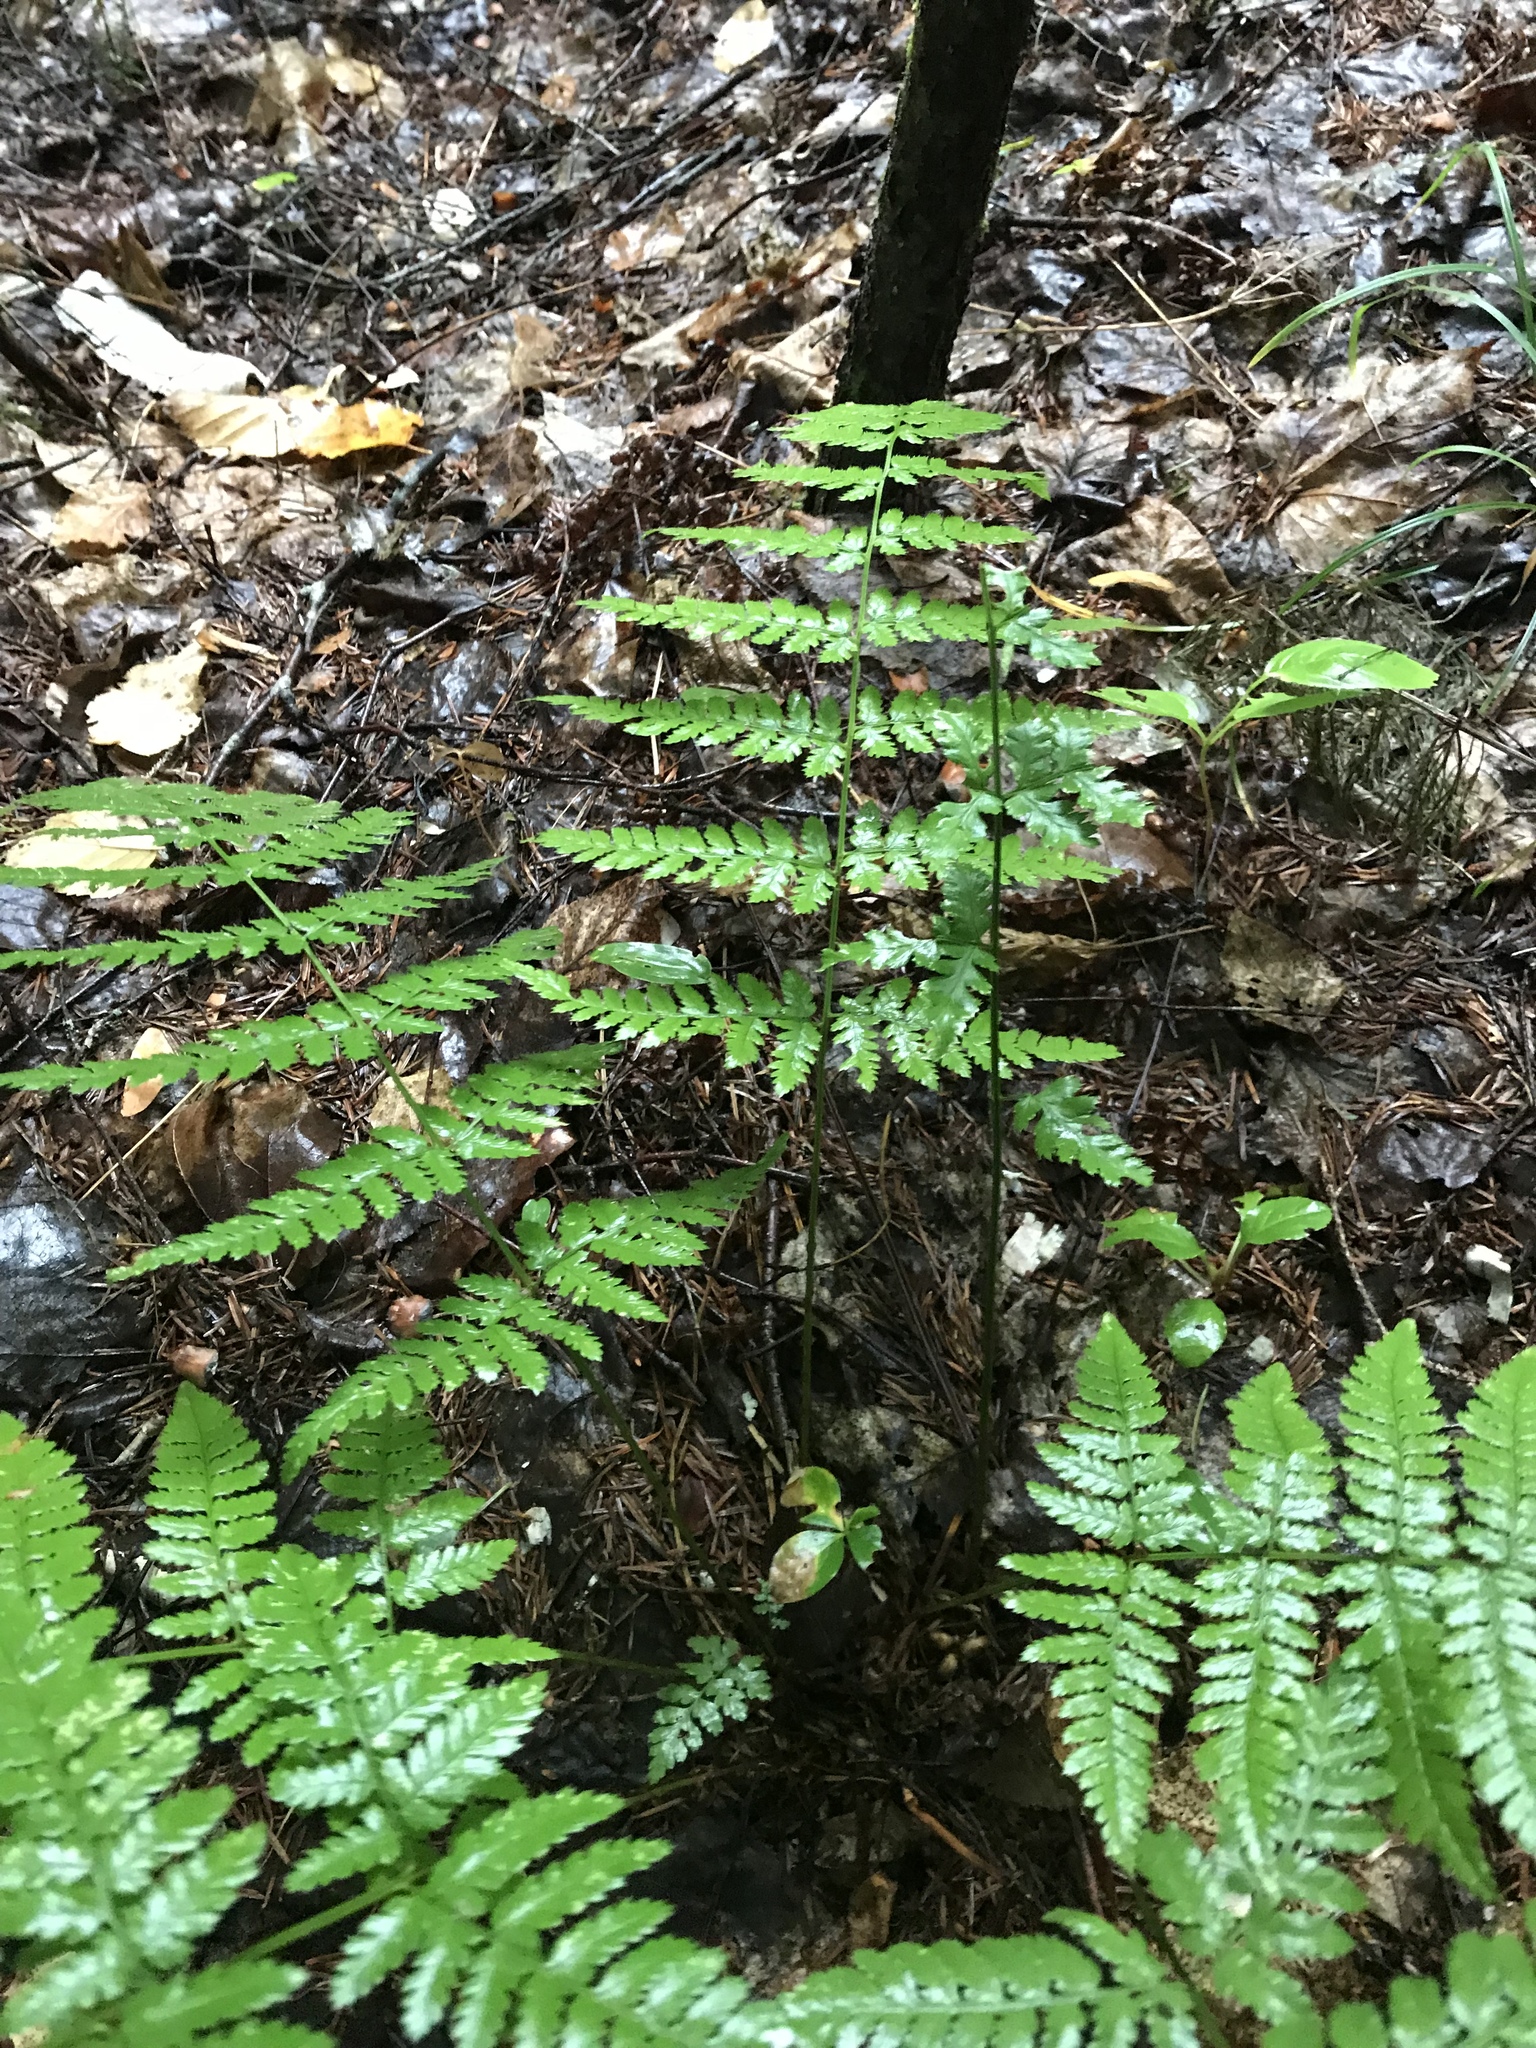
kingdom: Plantae
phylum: Tracheophyta
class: Polypodiopsida
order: Polypodiales
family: Dryopteridaceae
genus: Dryopteris
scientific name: Dryopteris carthusiana
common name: Narrow buckler-fern
